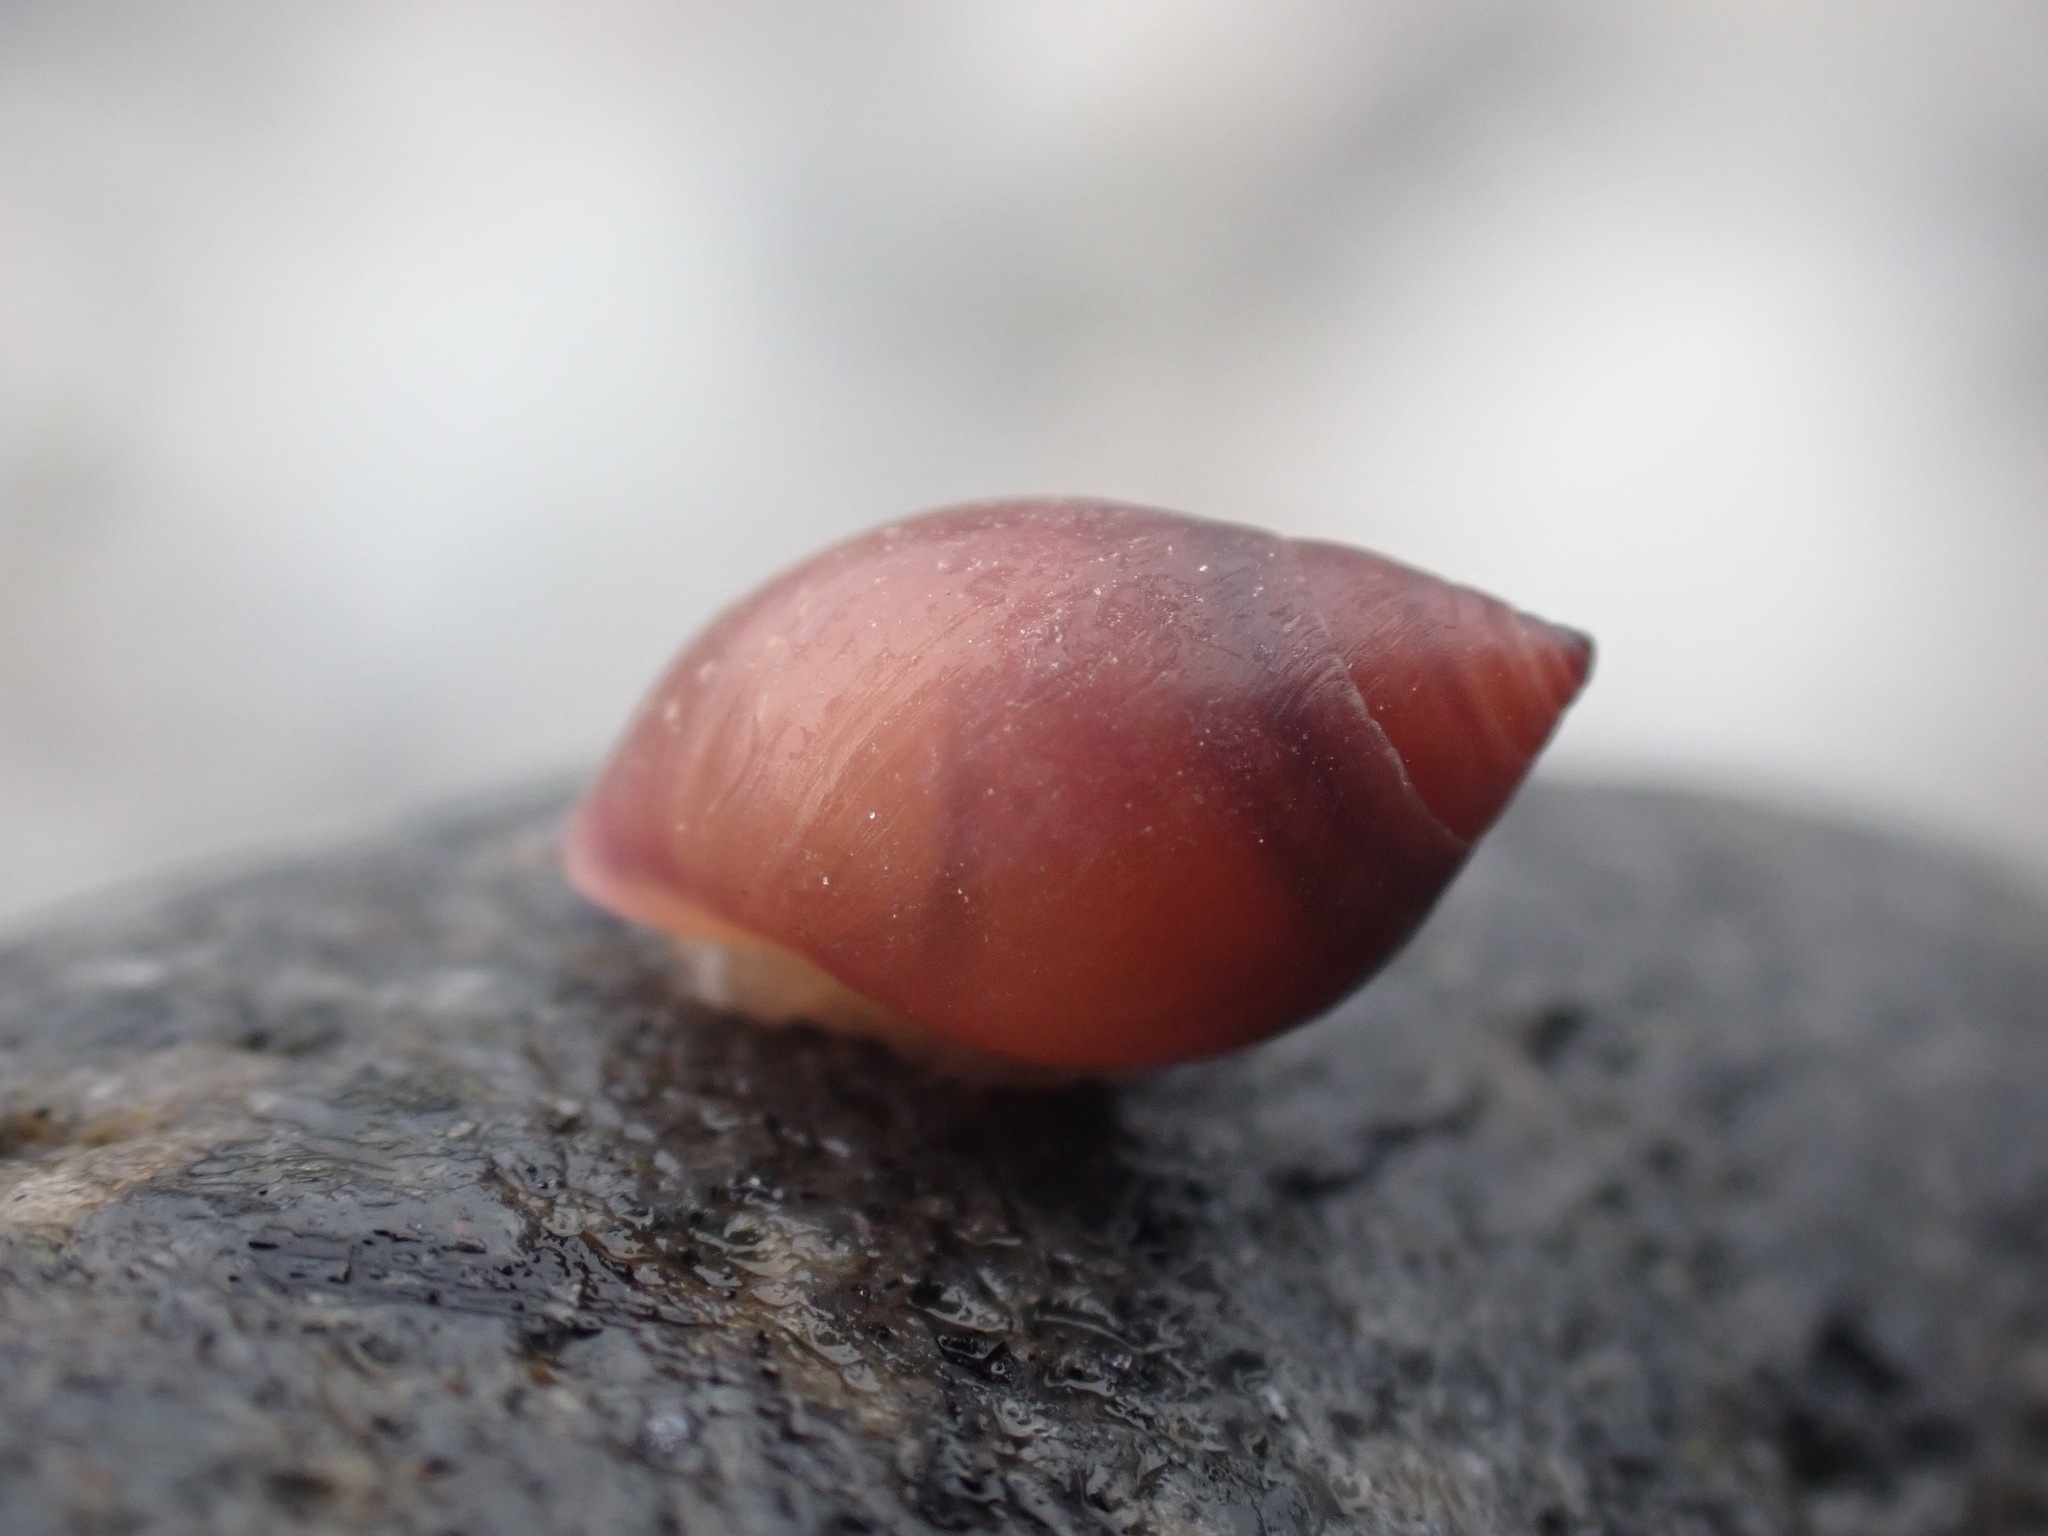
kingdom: Animalia
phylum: Mollusca
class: Gastropoda
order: Ellobiida
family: Ellobiidae
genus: Marinula
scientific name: Marinula filholi
